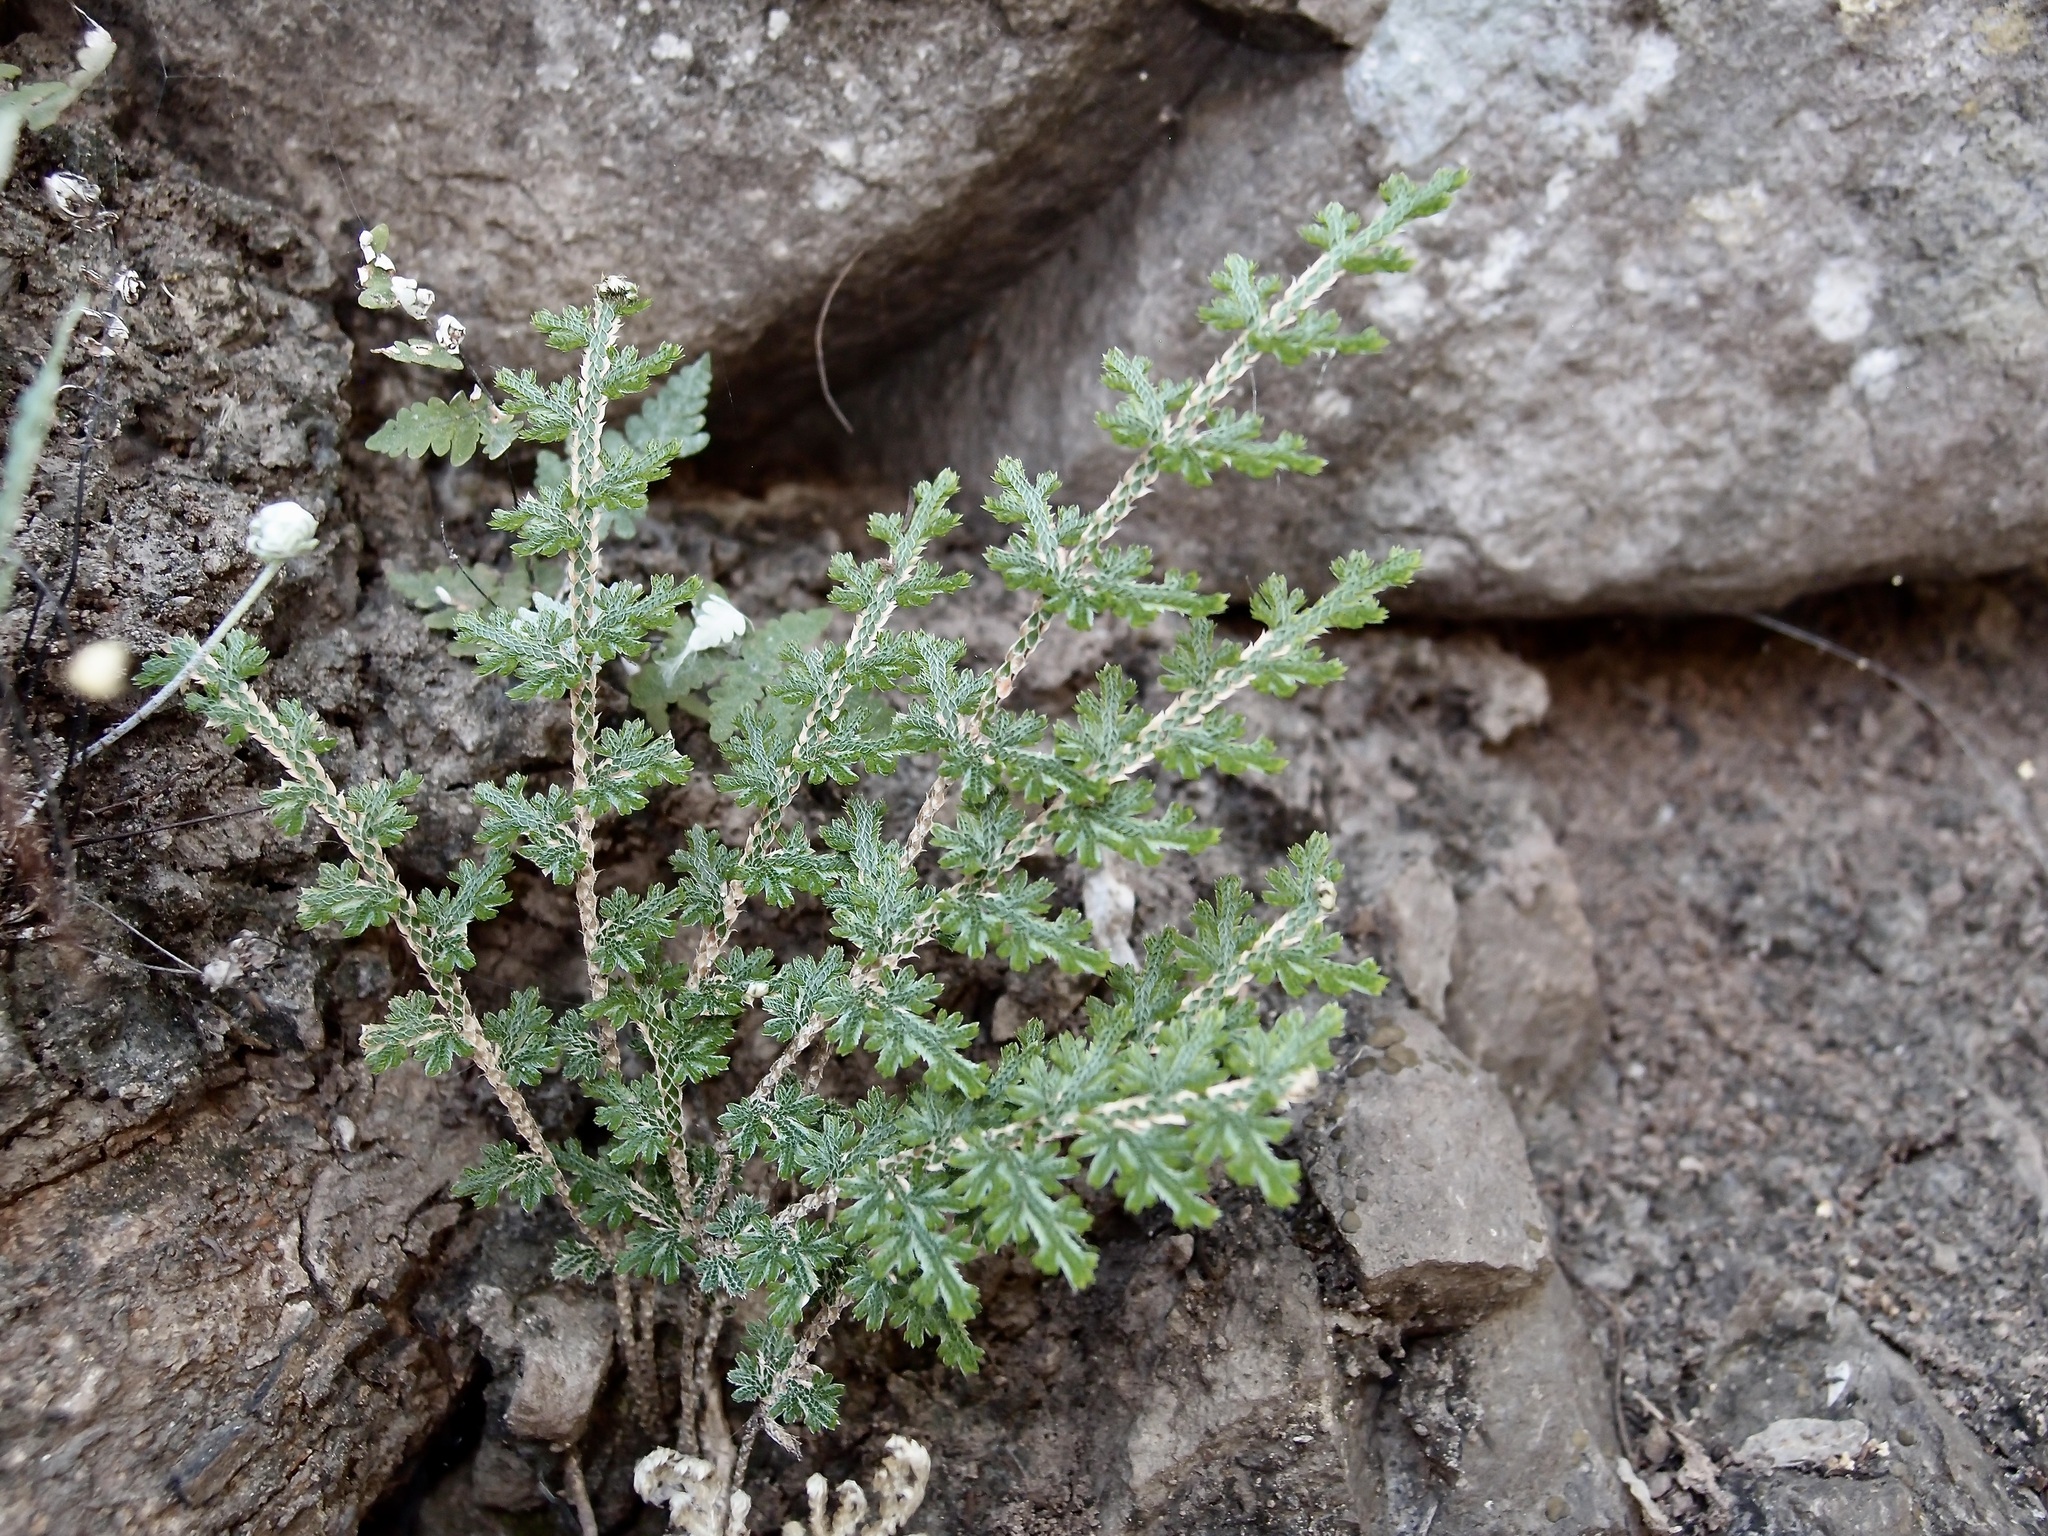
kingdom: Plantae
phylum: Tracheophyta
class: Lycopodiopsida
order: Selaginellales
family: Selaginellaceae
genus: Selaginella
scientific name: Selaginella pallescens
